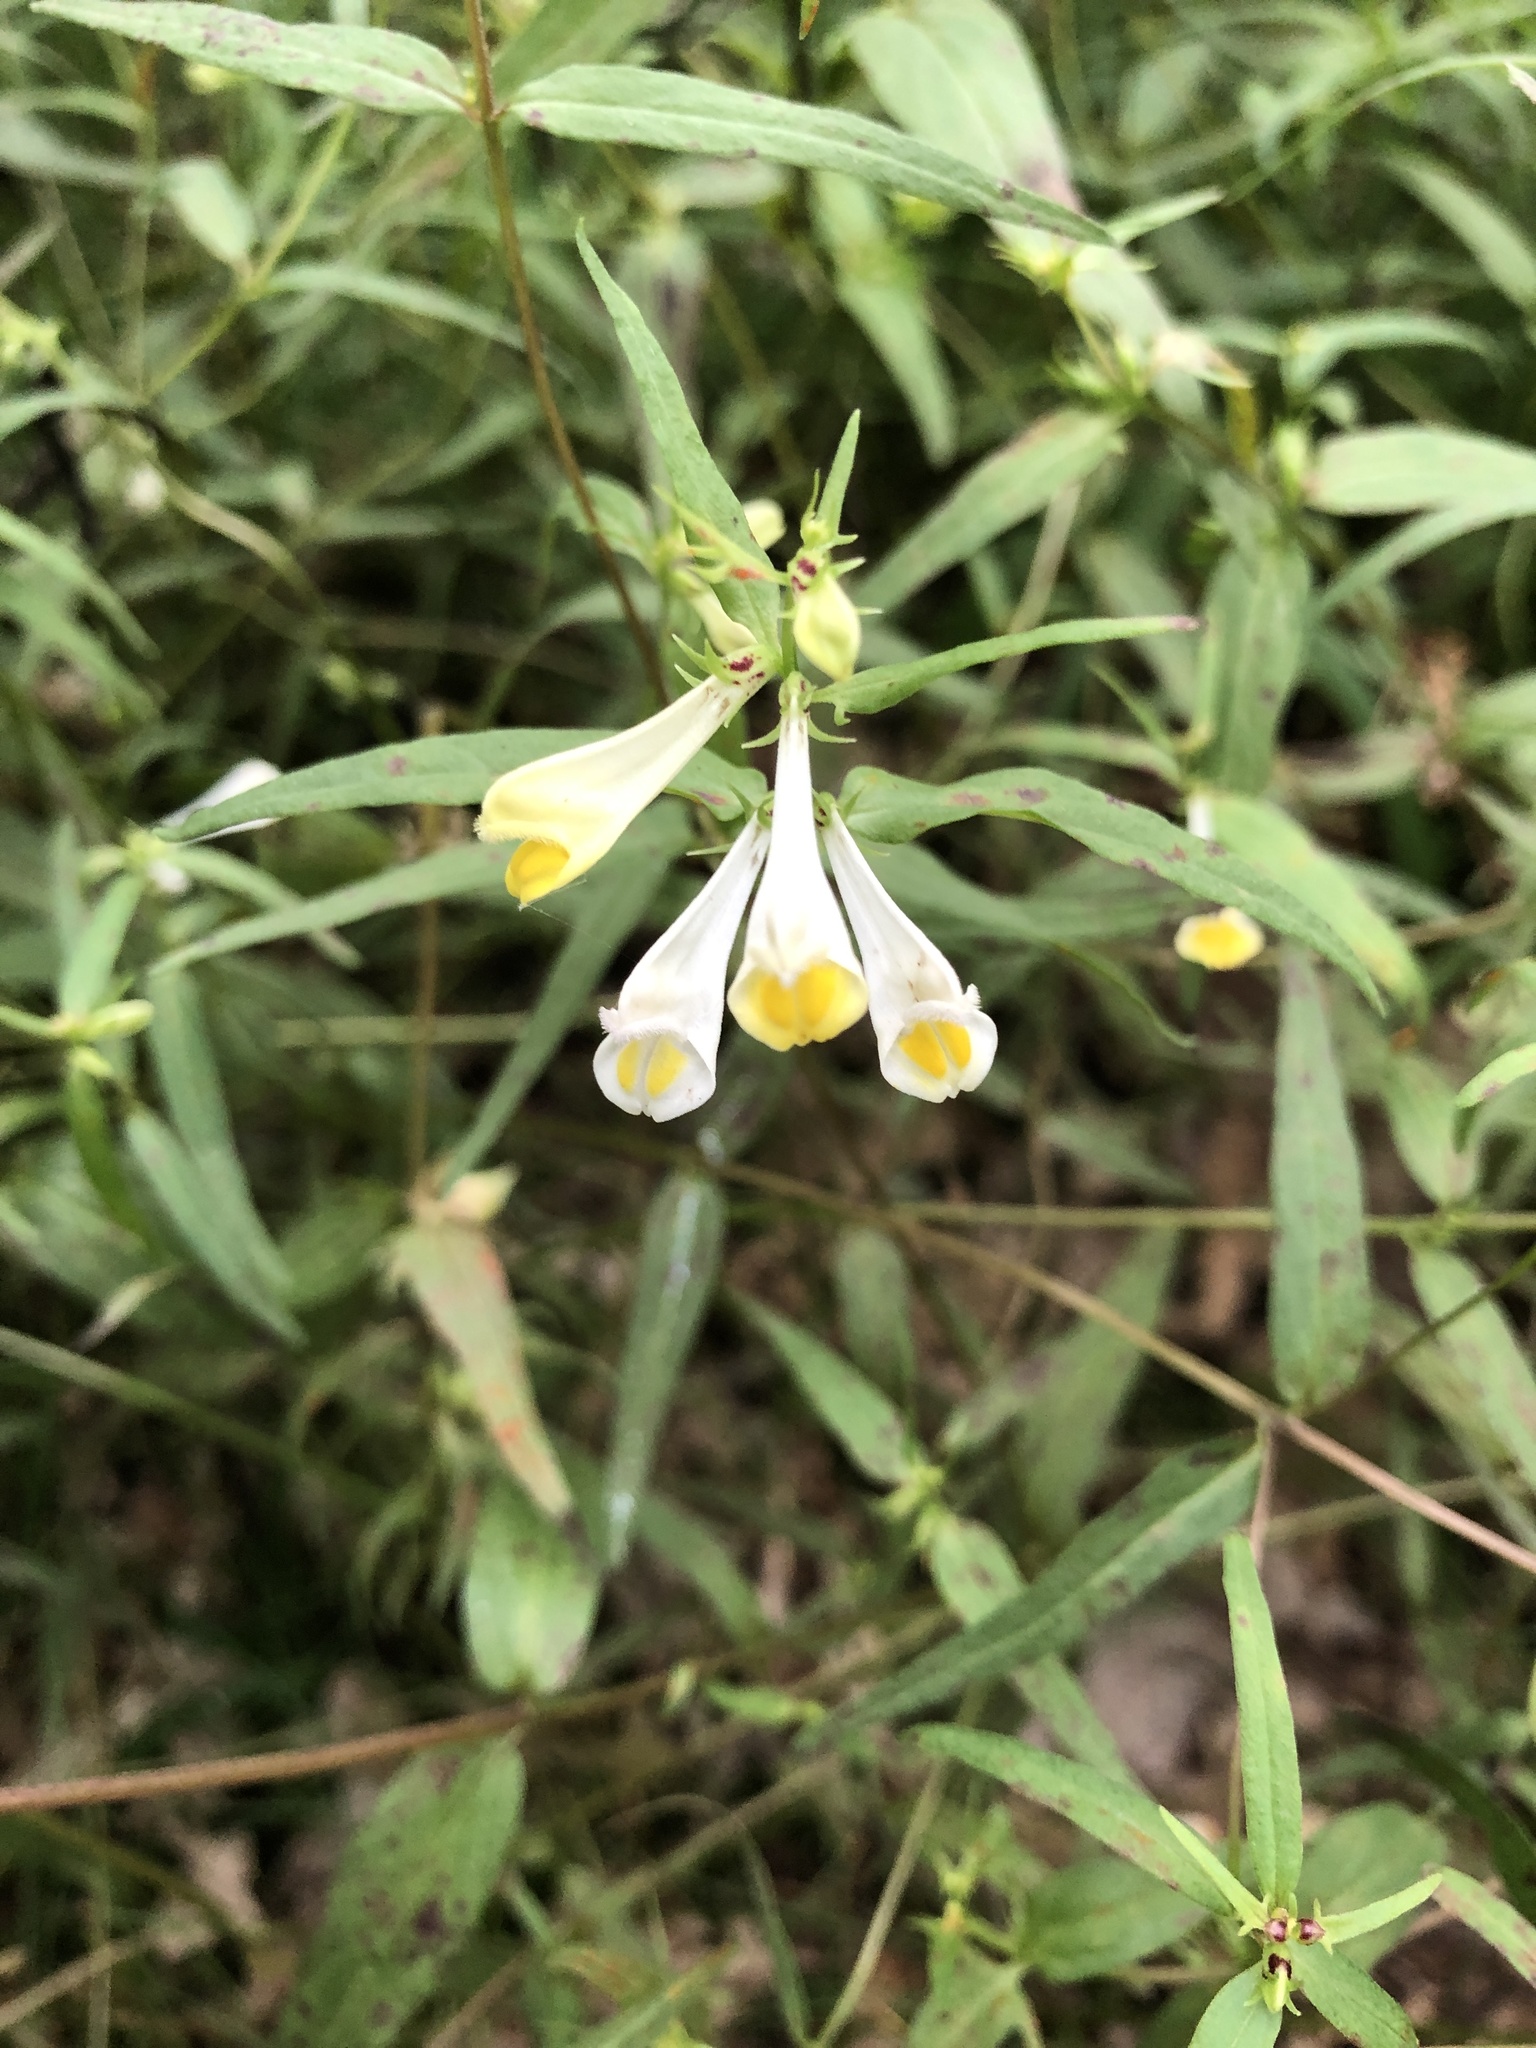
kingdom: Plantae
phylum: Tracheophyta
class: Magnoliopsida
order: Lamiales
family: Orobanchaceae
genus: Melampyrum
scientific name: Melampyrum pratense
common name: Common cow-wheat
